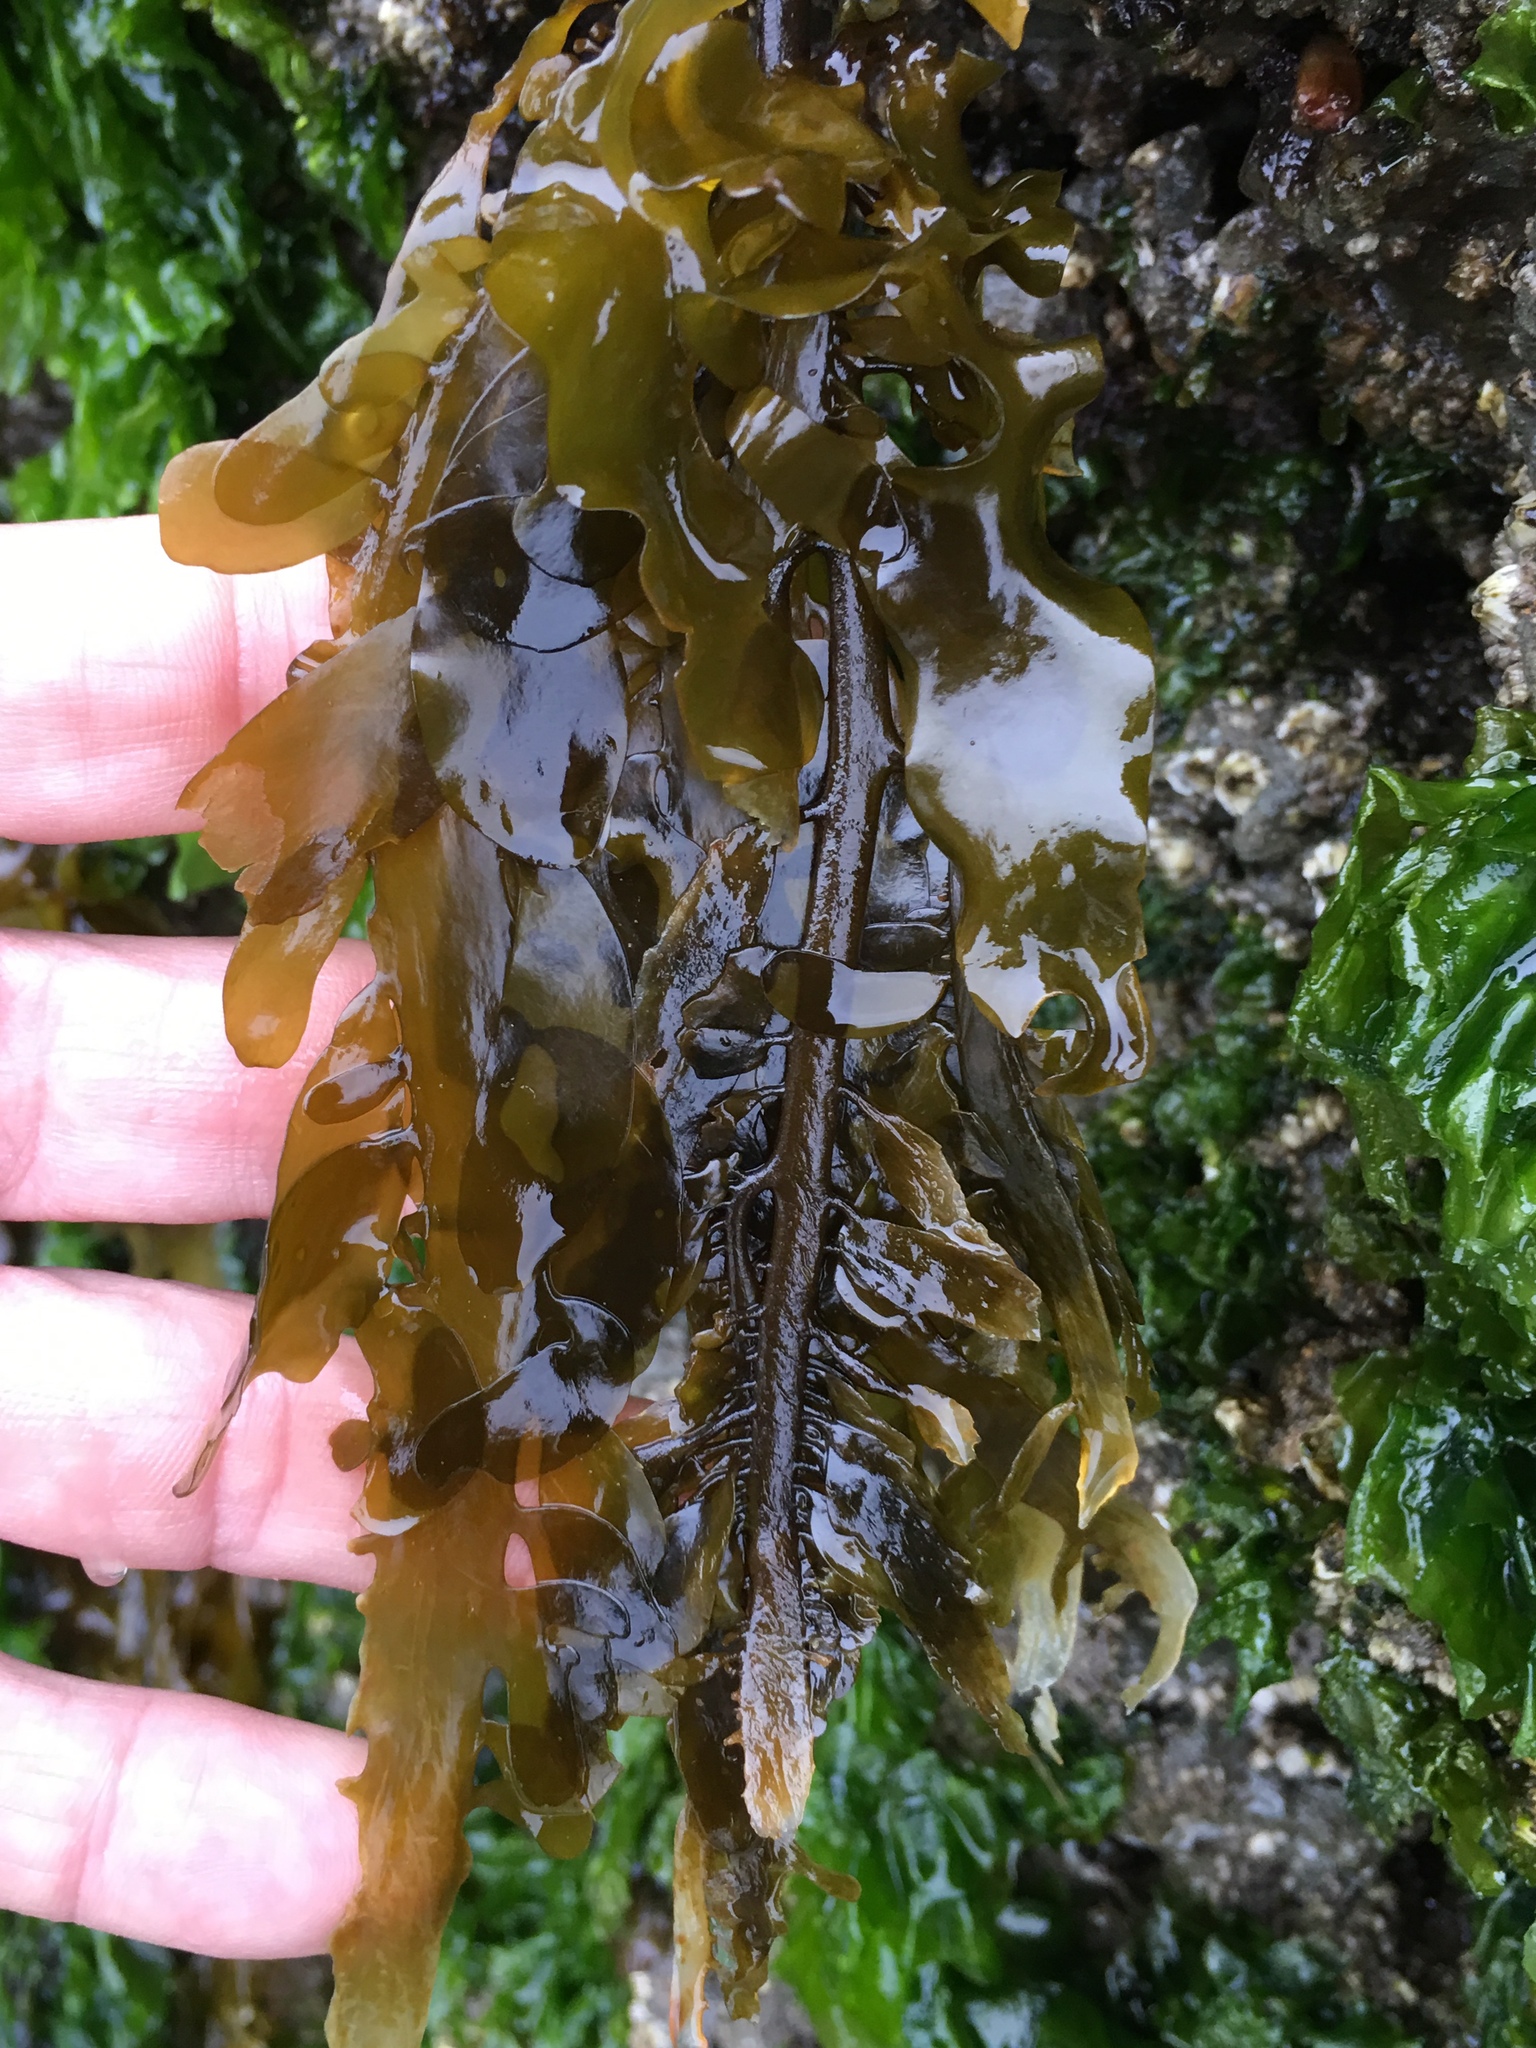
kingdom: Chromista
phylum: Ochrophyta
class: Phaeophyceae
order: Laminariales
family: Lessoniaceae
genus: Egregia
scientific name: Egregia menziesii
